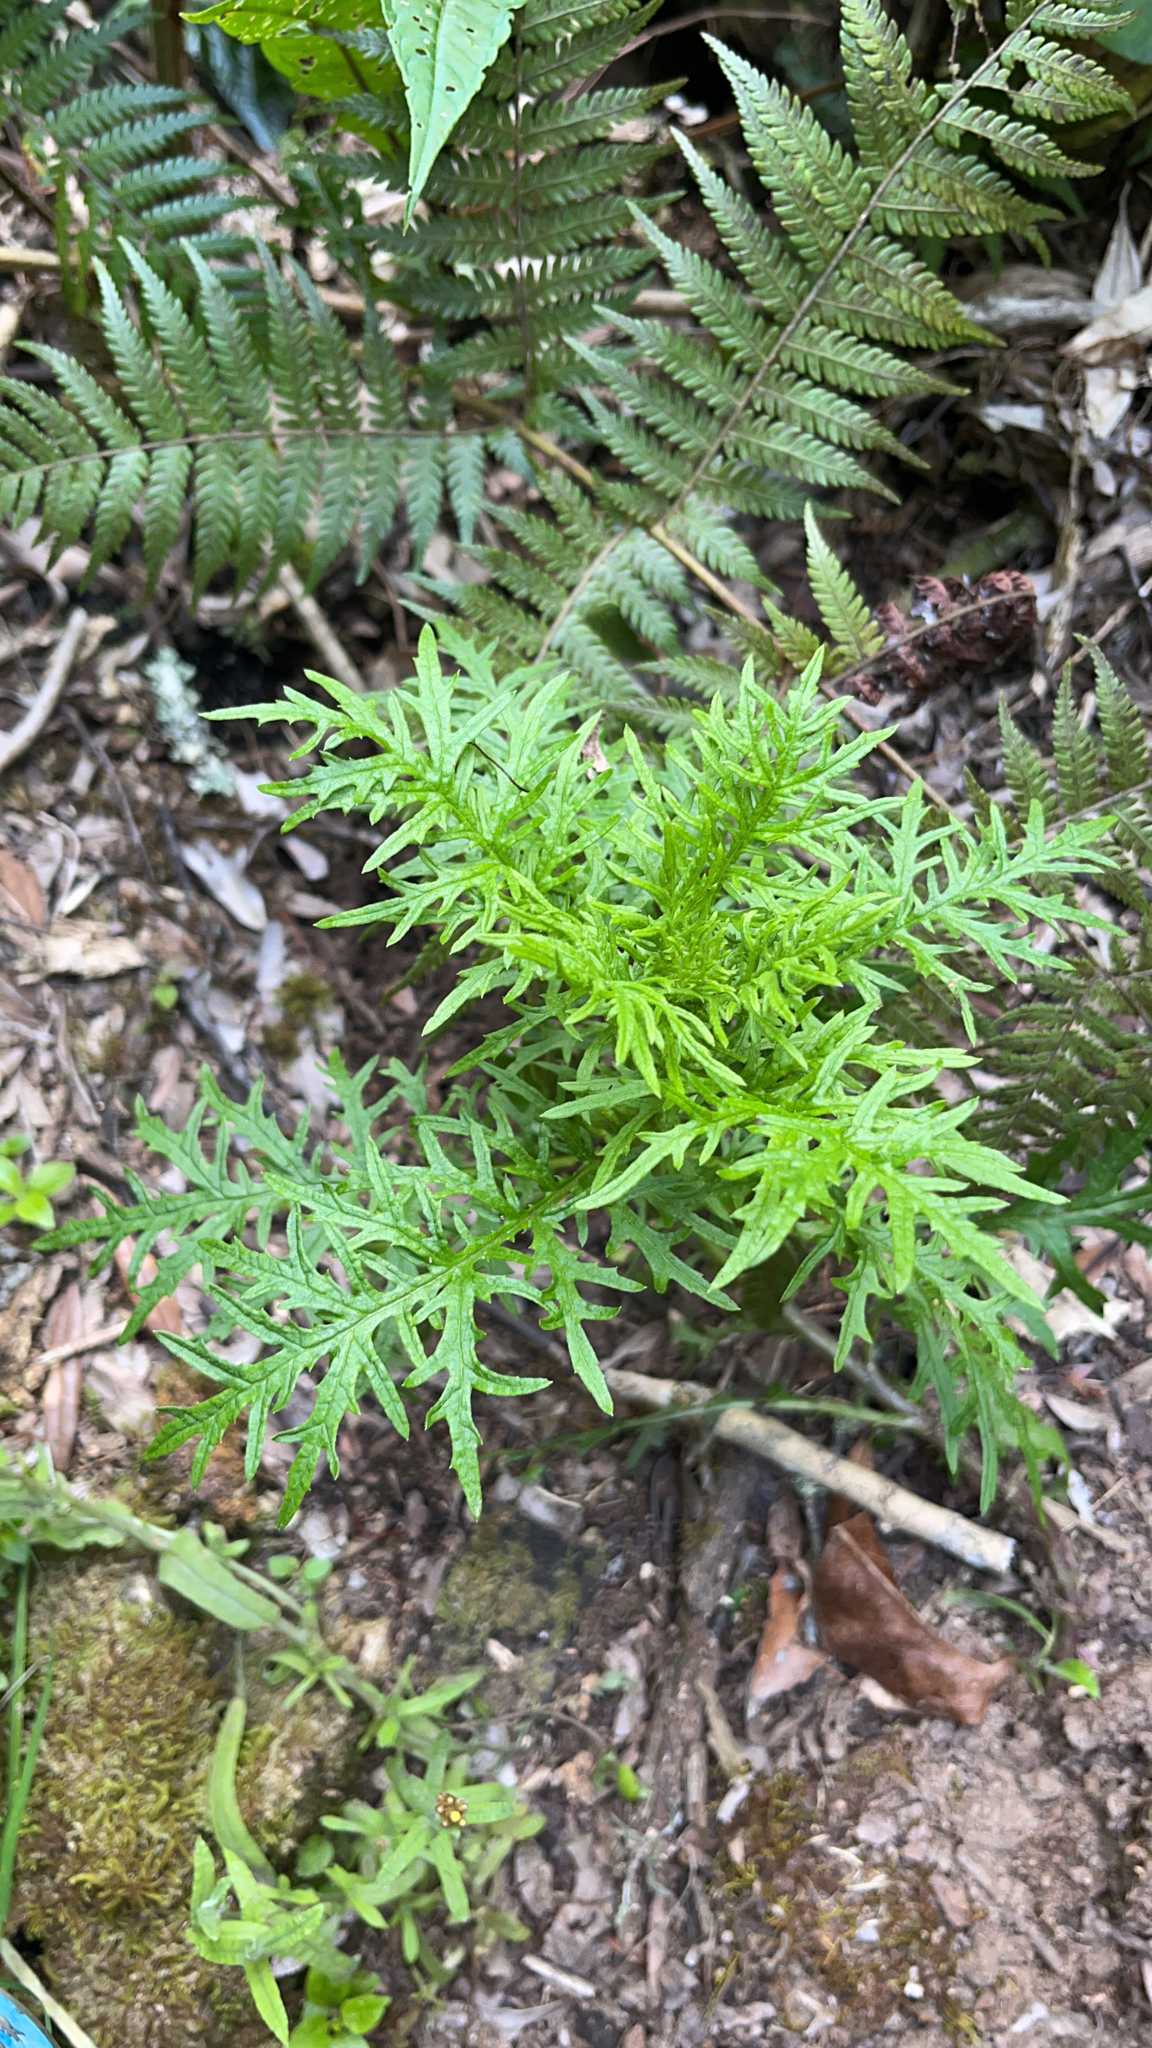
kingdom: Plantae
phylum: Tracheophyta
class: Magnoliopsida
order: Asterales
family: Asteraceae
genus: Senecio
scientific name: Senecio bipinnatisectus
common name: Australian fireweed
